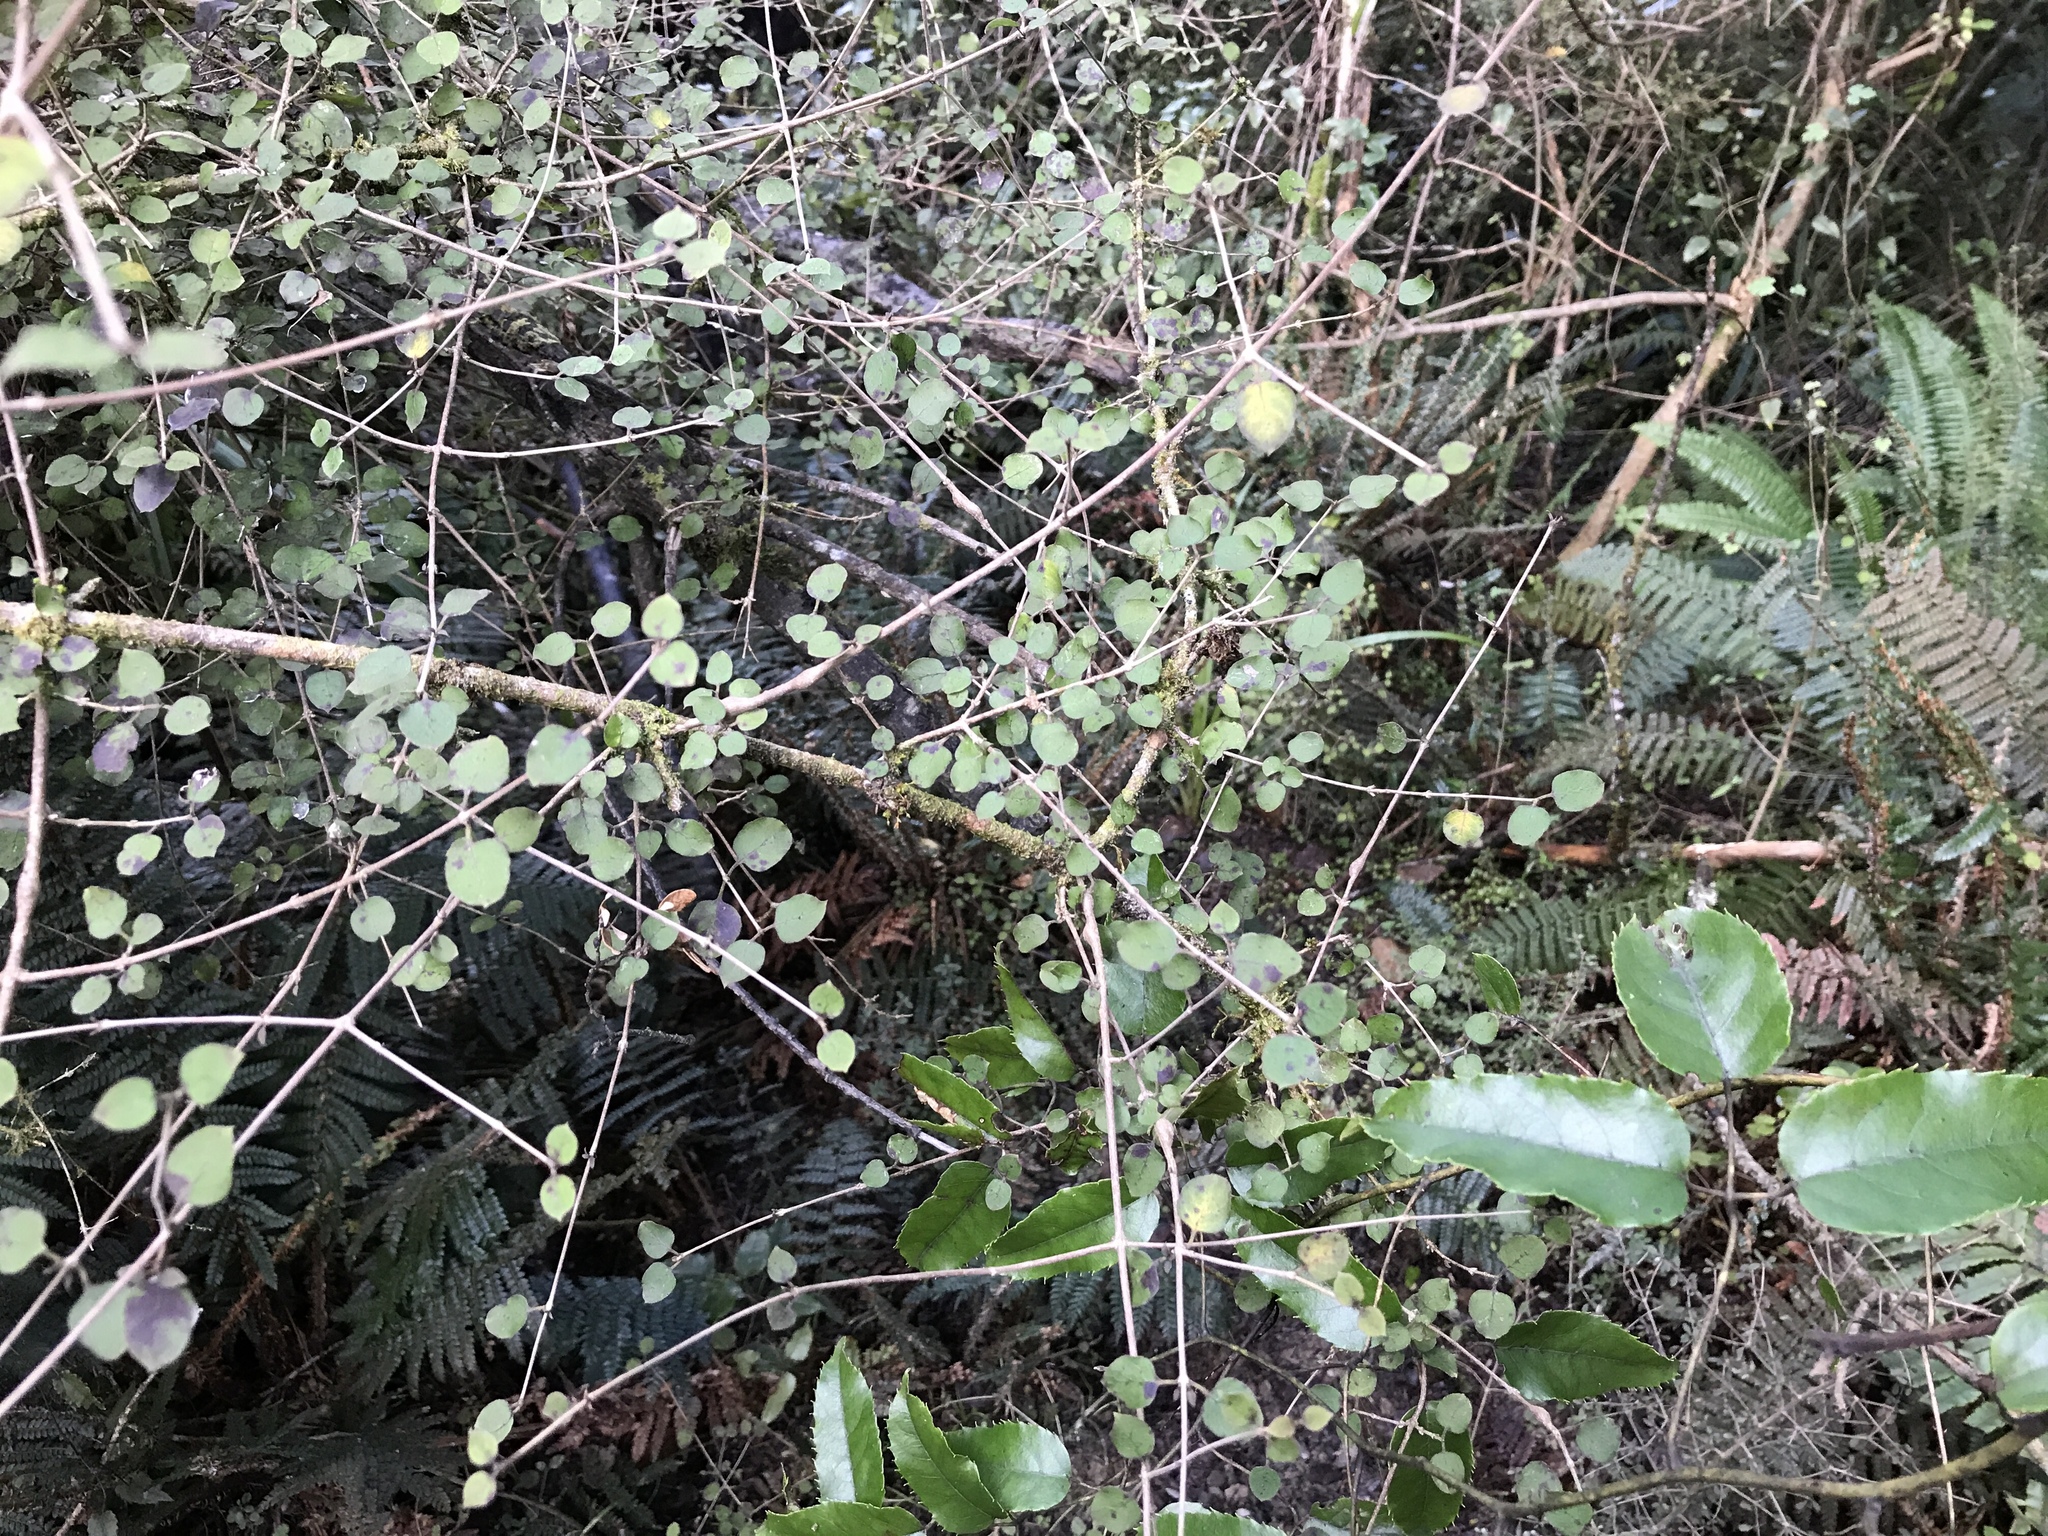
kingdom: Plantae
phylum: Tracheophyta
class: Magnoliopsida
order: Gentianales
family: Rubiaceae
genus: Coprosma
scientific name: Coprosma rotundifolia
